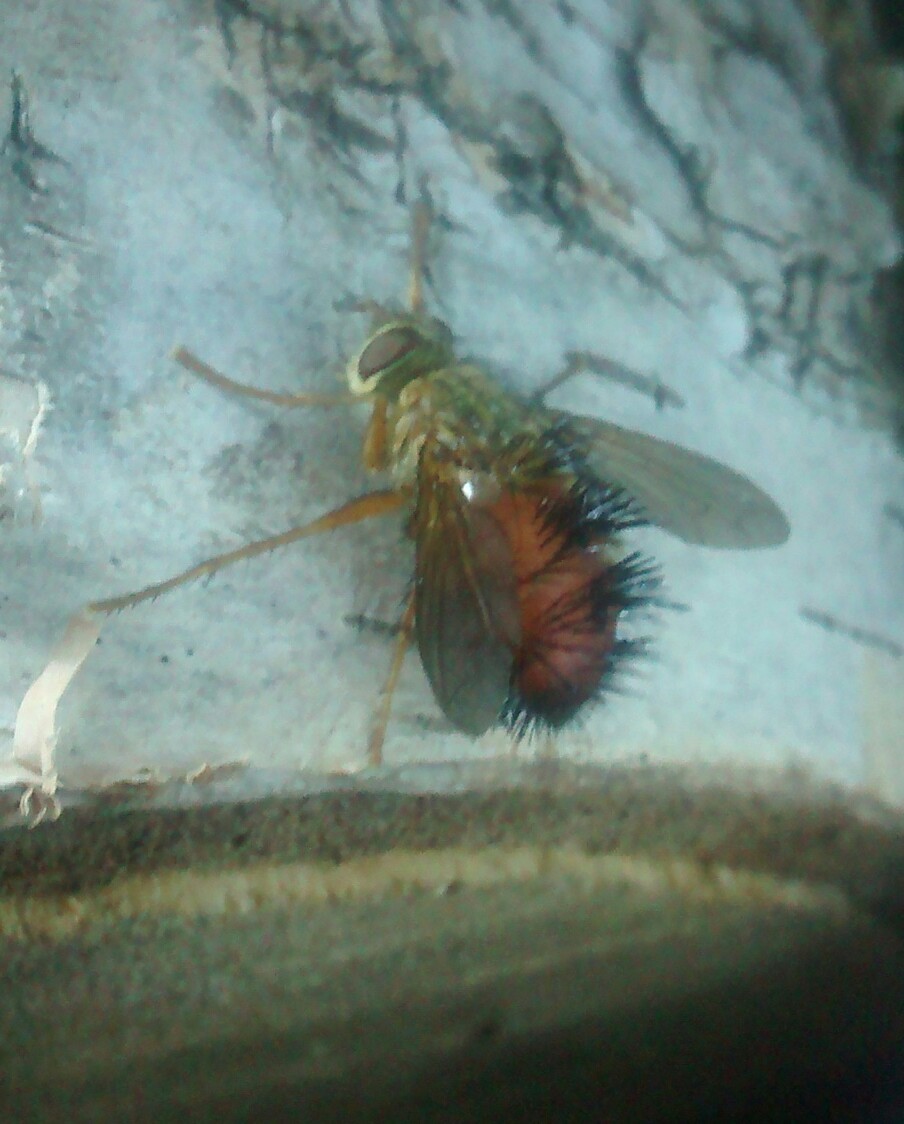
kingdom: Animalia
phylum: Arthropoda
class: Insecta
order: Diptera
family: Tachinidae
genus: Hystricia
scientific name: Hystricia abrupta
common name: Tomato bristle fly
